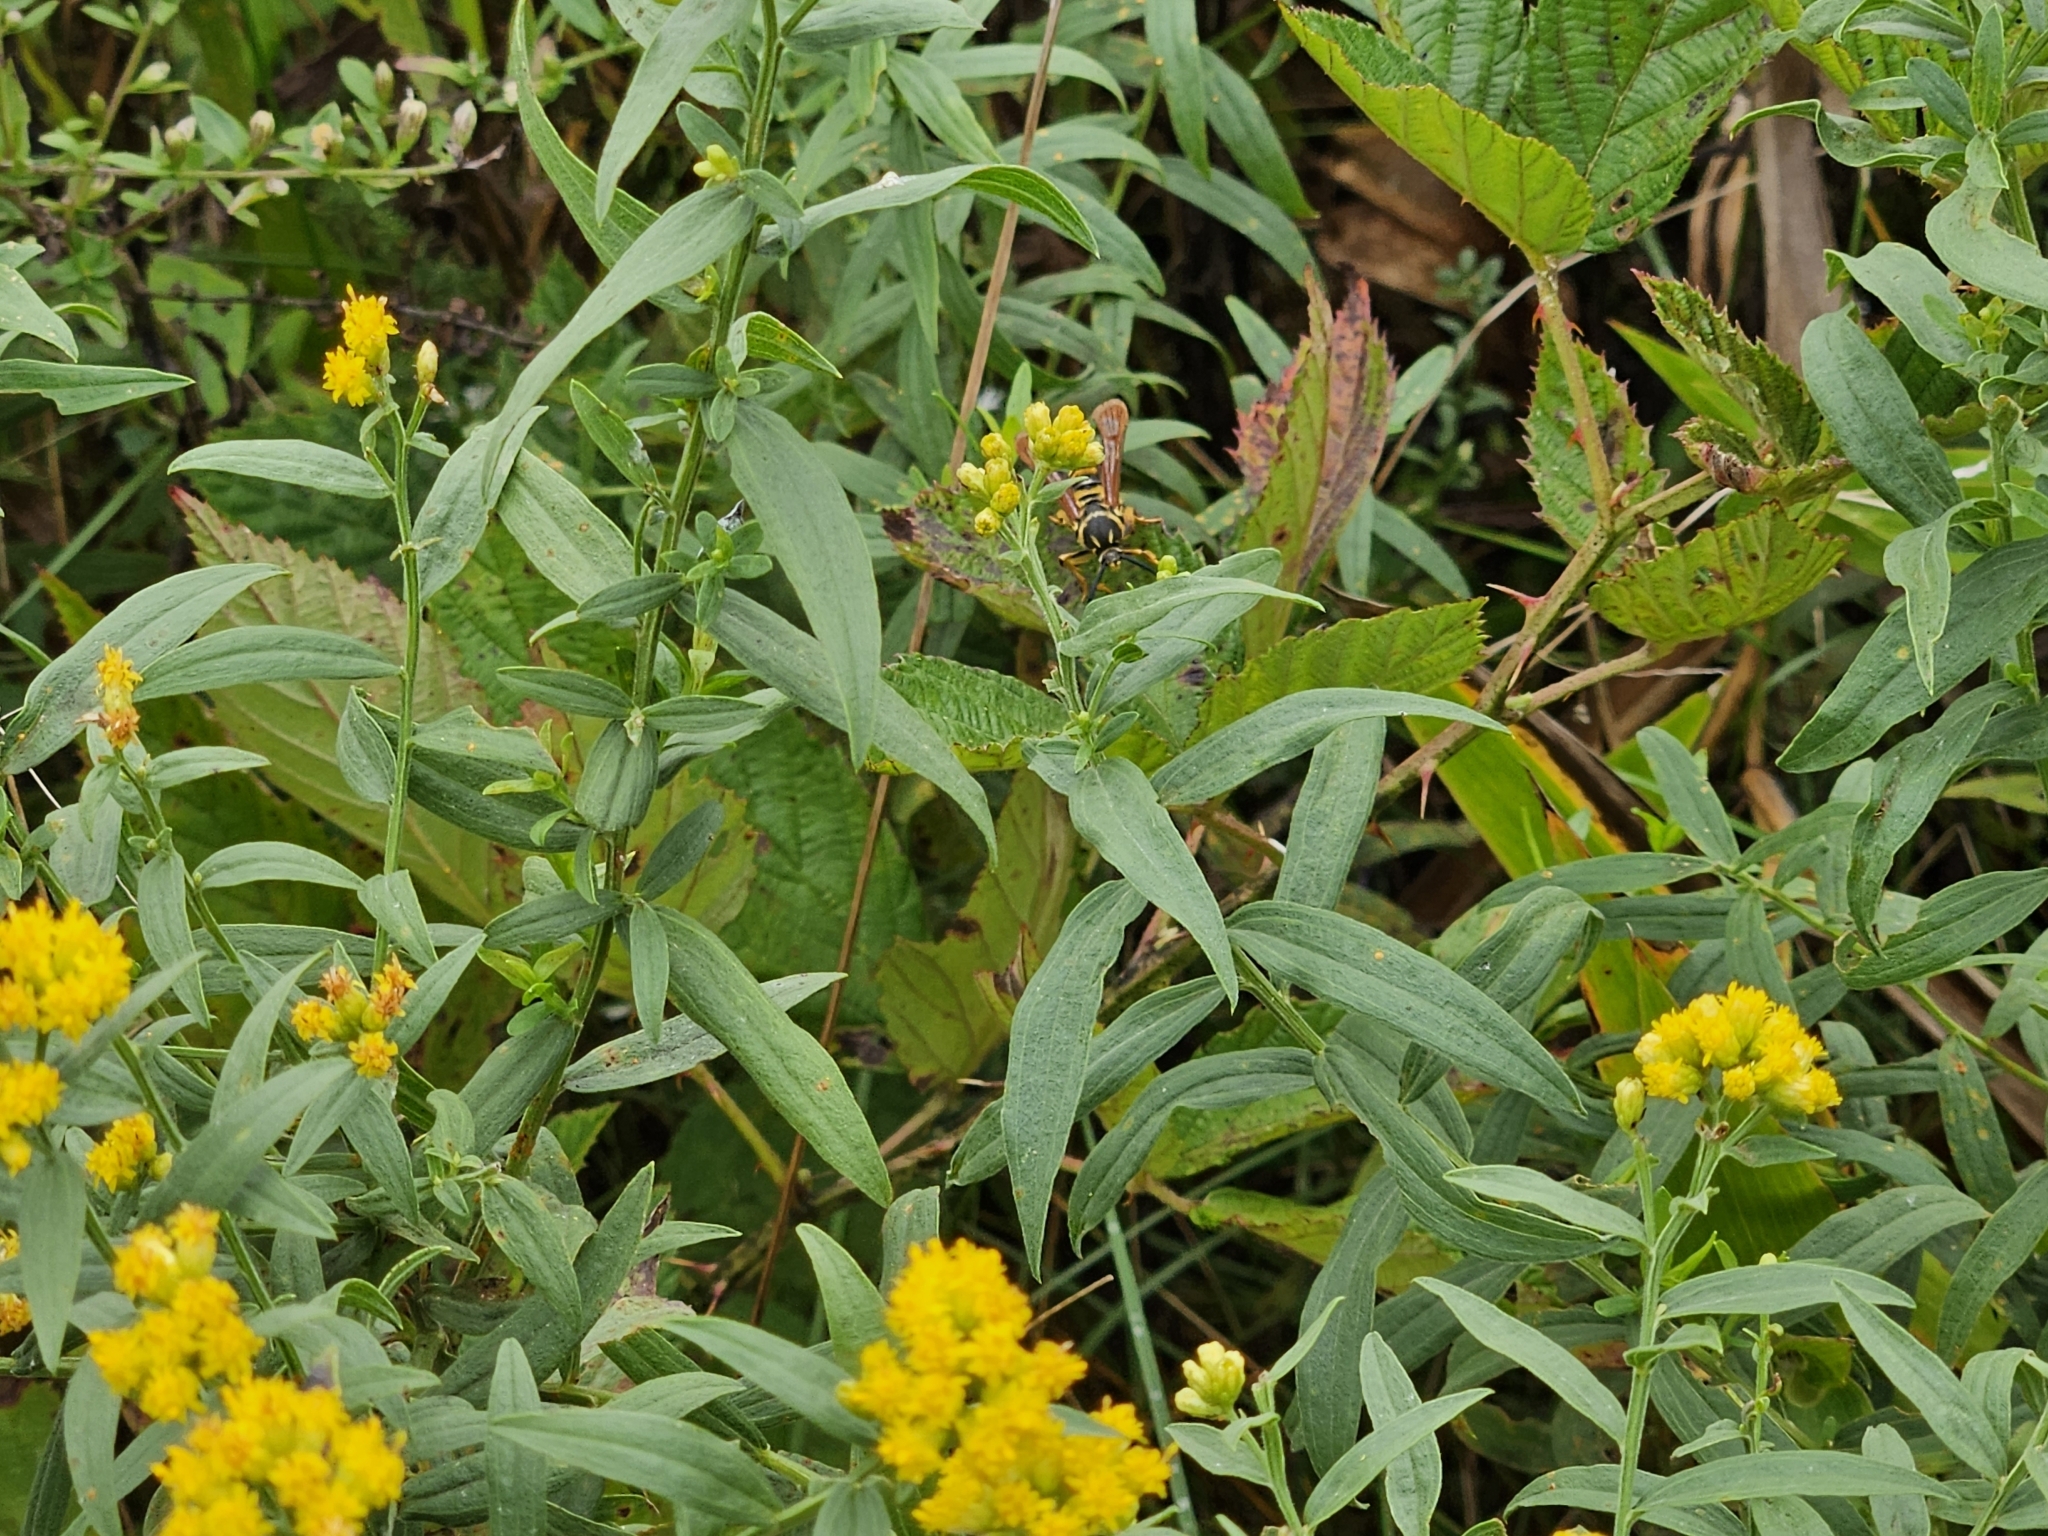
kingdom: Animalia
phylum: Arthropoda
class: Insecta
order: Lepidoptera
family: Sesiidae
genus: Pennisetia
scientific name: Pennisetia marginatum
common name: Raspberry crown borer
